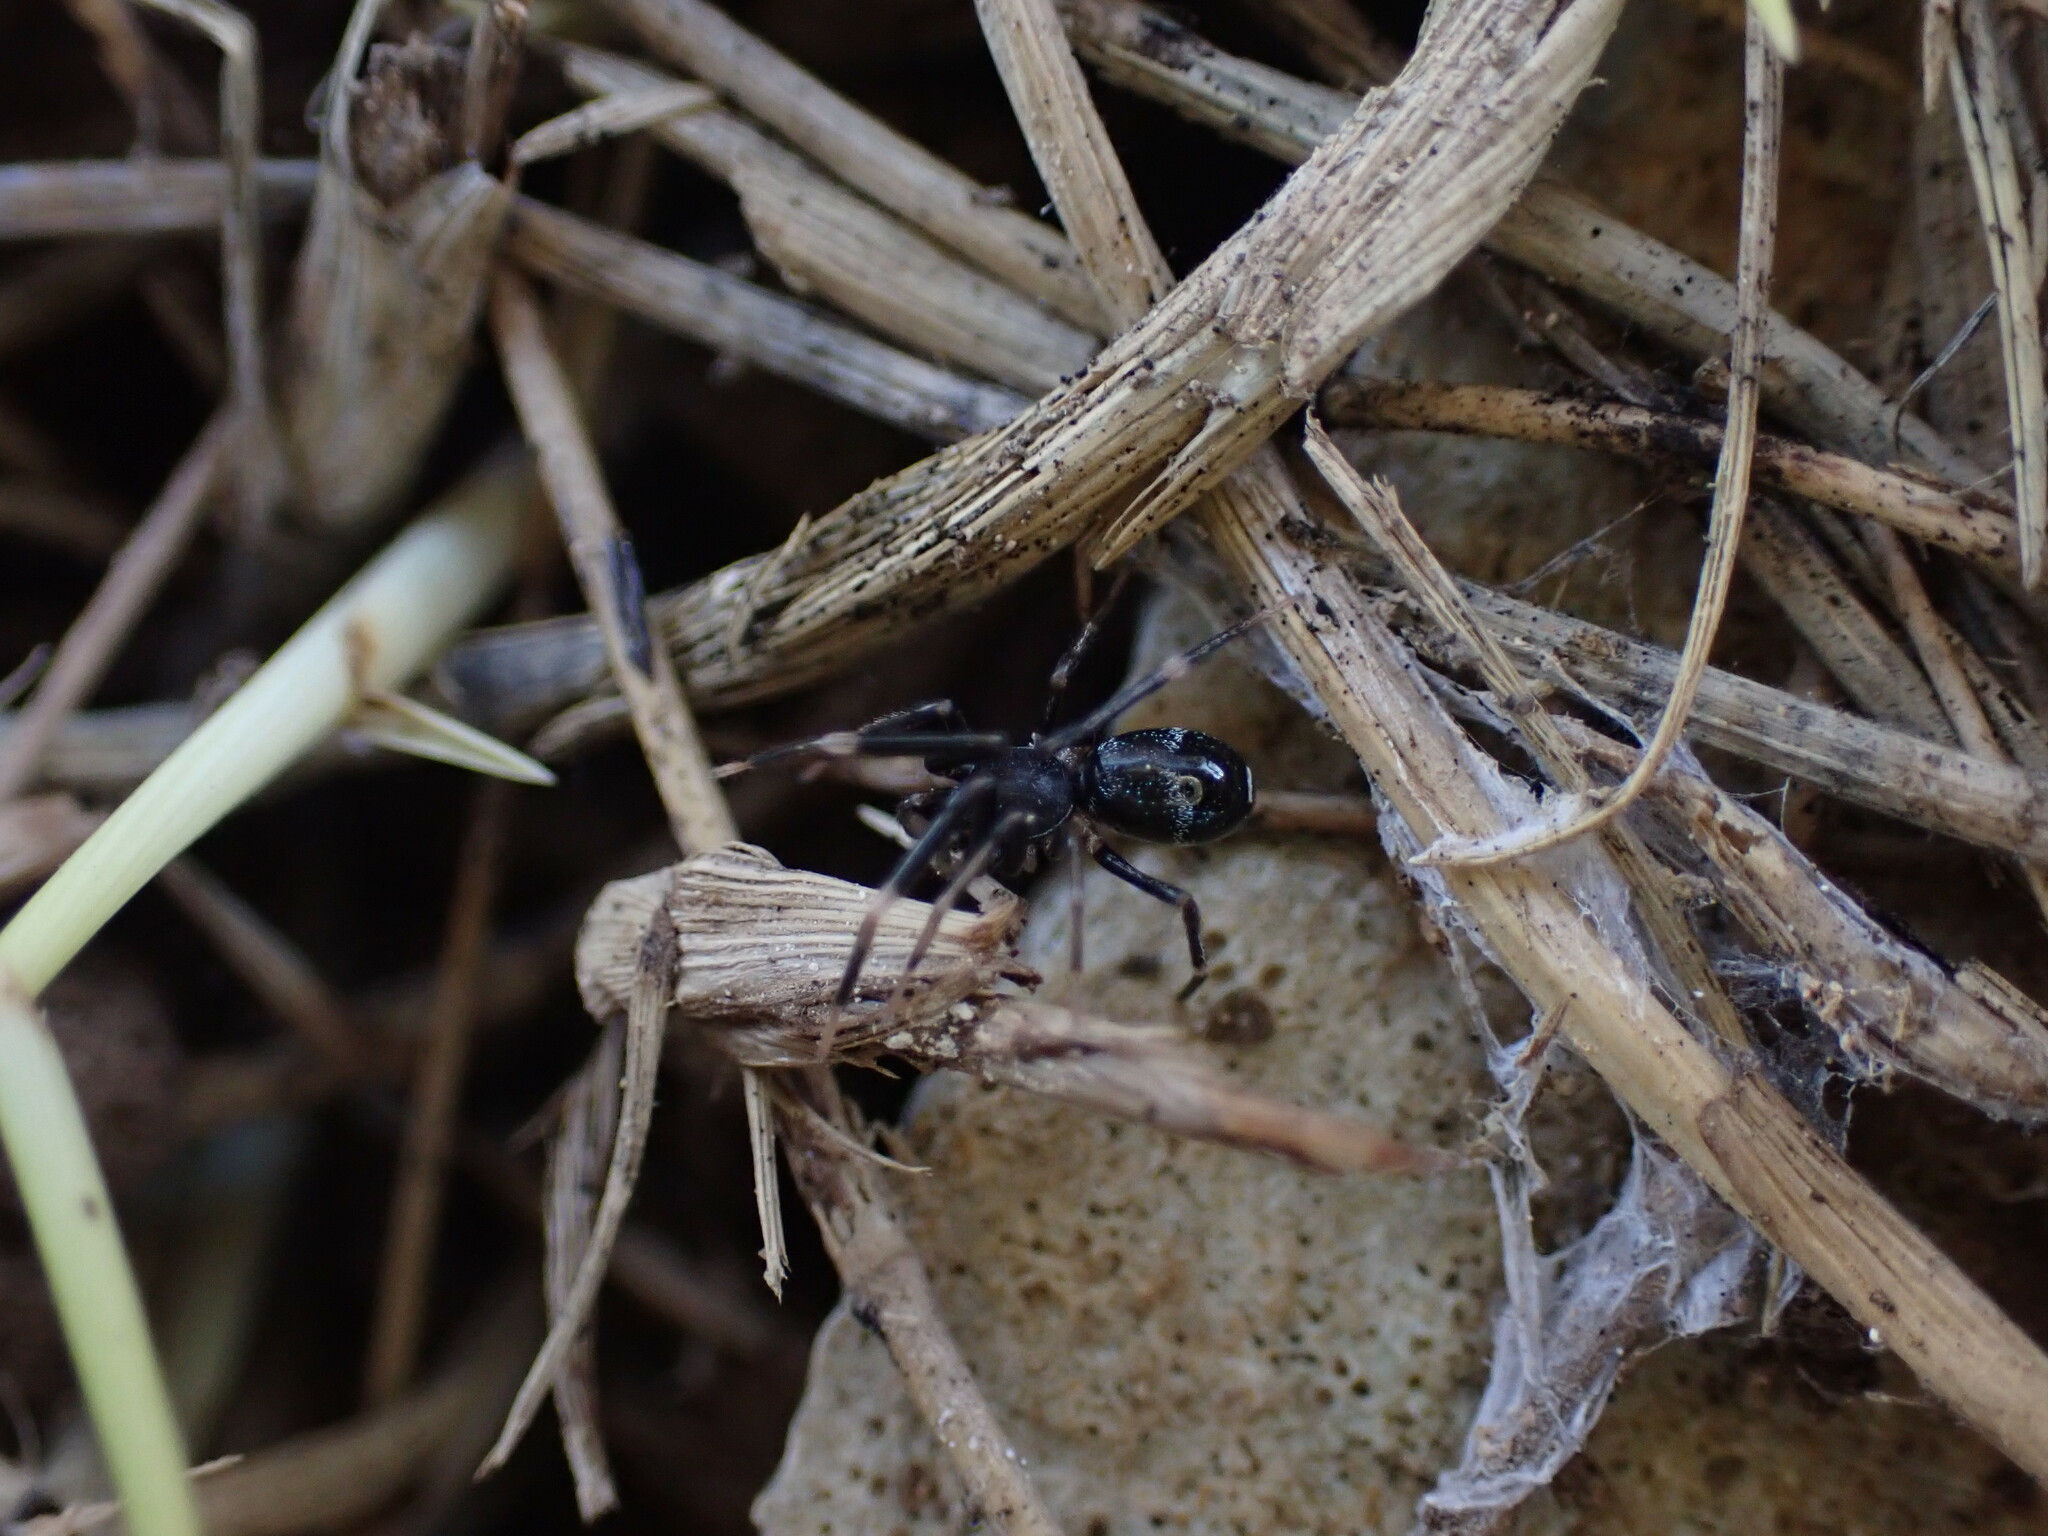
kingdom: Animalia
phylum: Arthropoda
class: Arachnida
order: Araneae
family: Phrurolithidae
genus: Liophrurillus
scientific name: Liophrurillus flavitarsis
